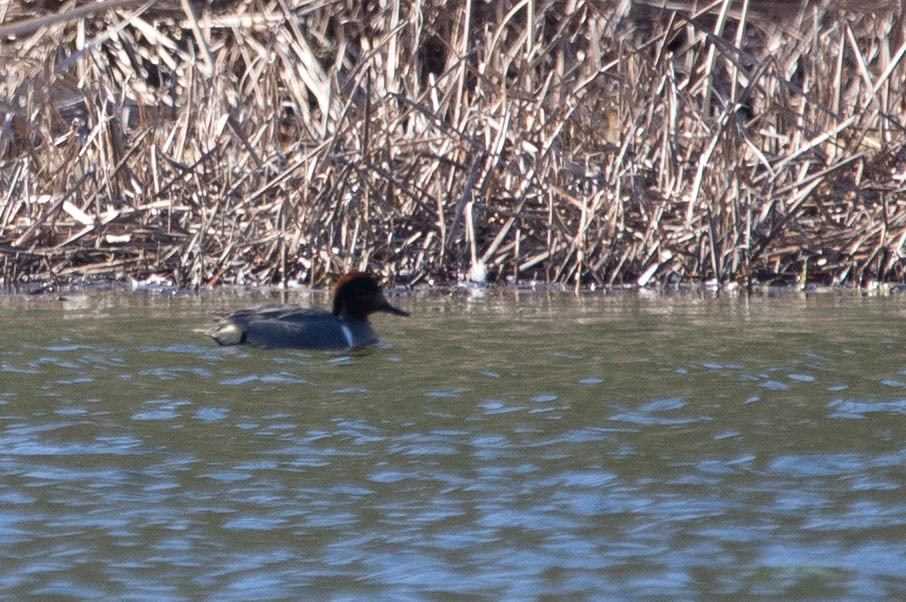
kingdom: Animalia
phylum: Chordata
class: Aves
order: Anseriformes
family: Anatidae
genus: Anas
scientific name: Anas crecca
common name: Eurasian teal
